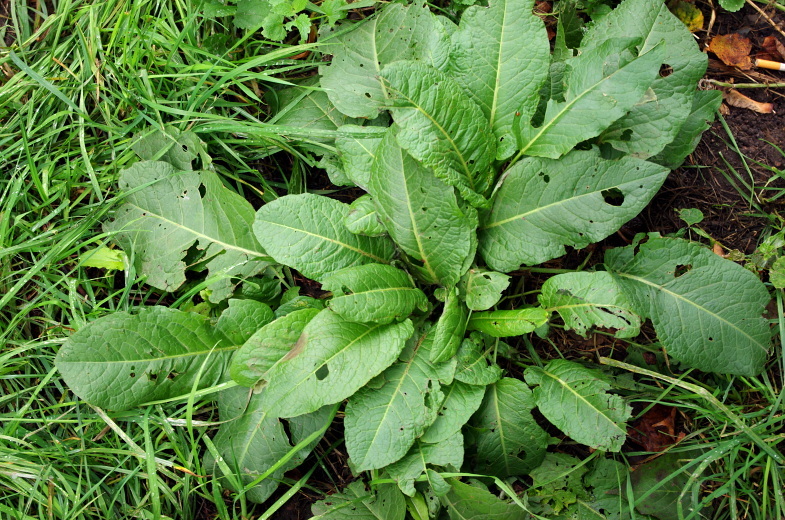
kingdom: Plantae
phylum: Tracheophyta
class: Magnoliopsida
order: Caryophyllales
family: Polygonaceae
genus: Rumex
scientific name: Rumex obtusifolius
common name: Bitter dock
